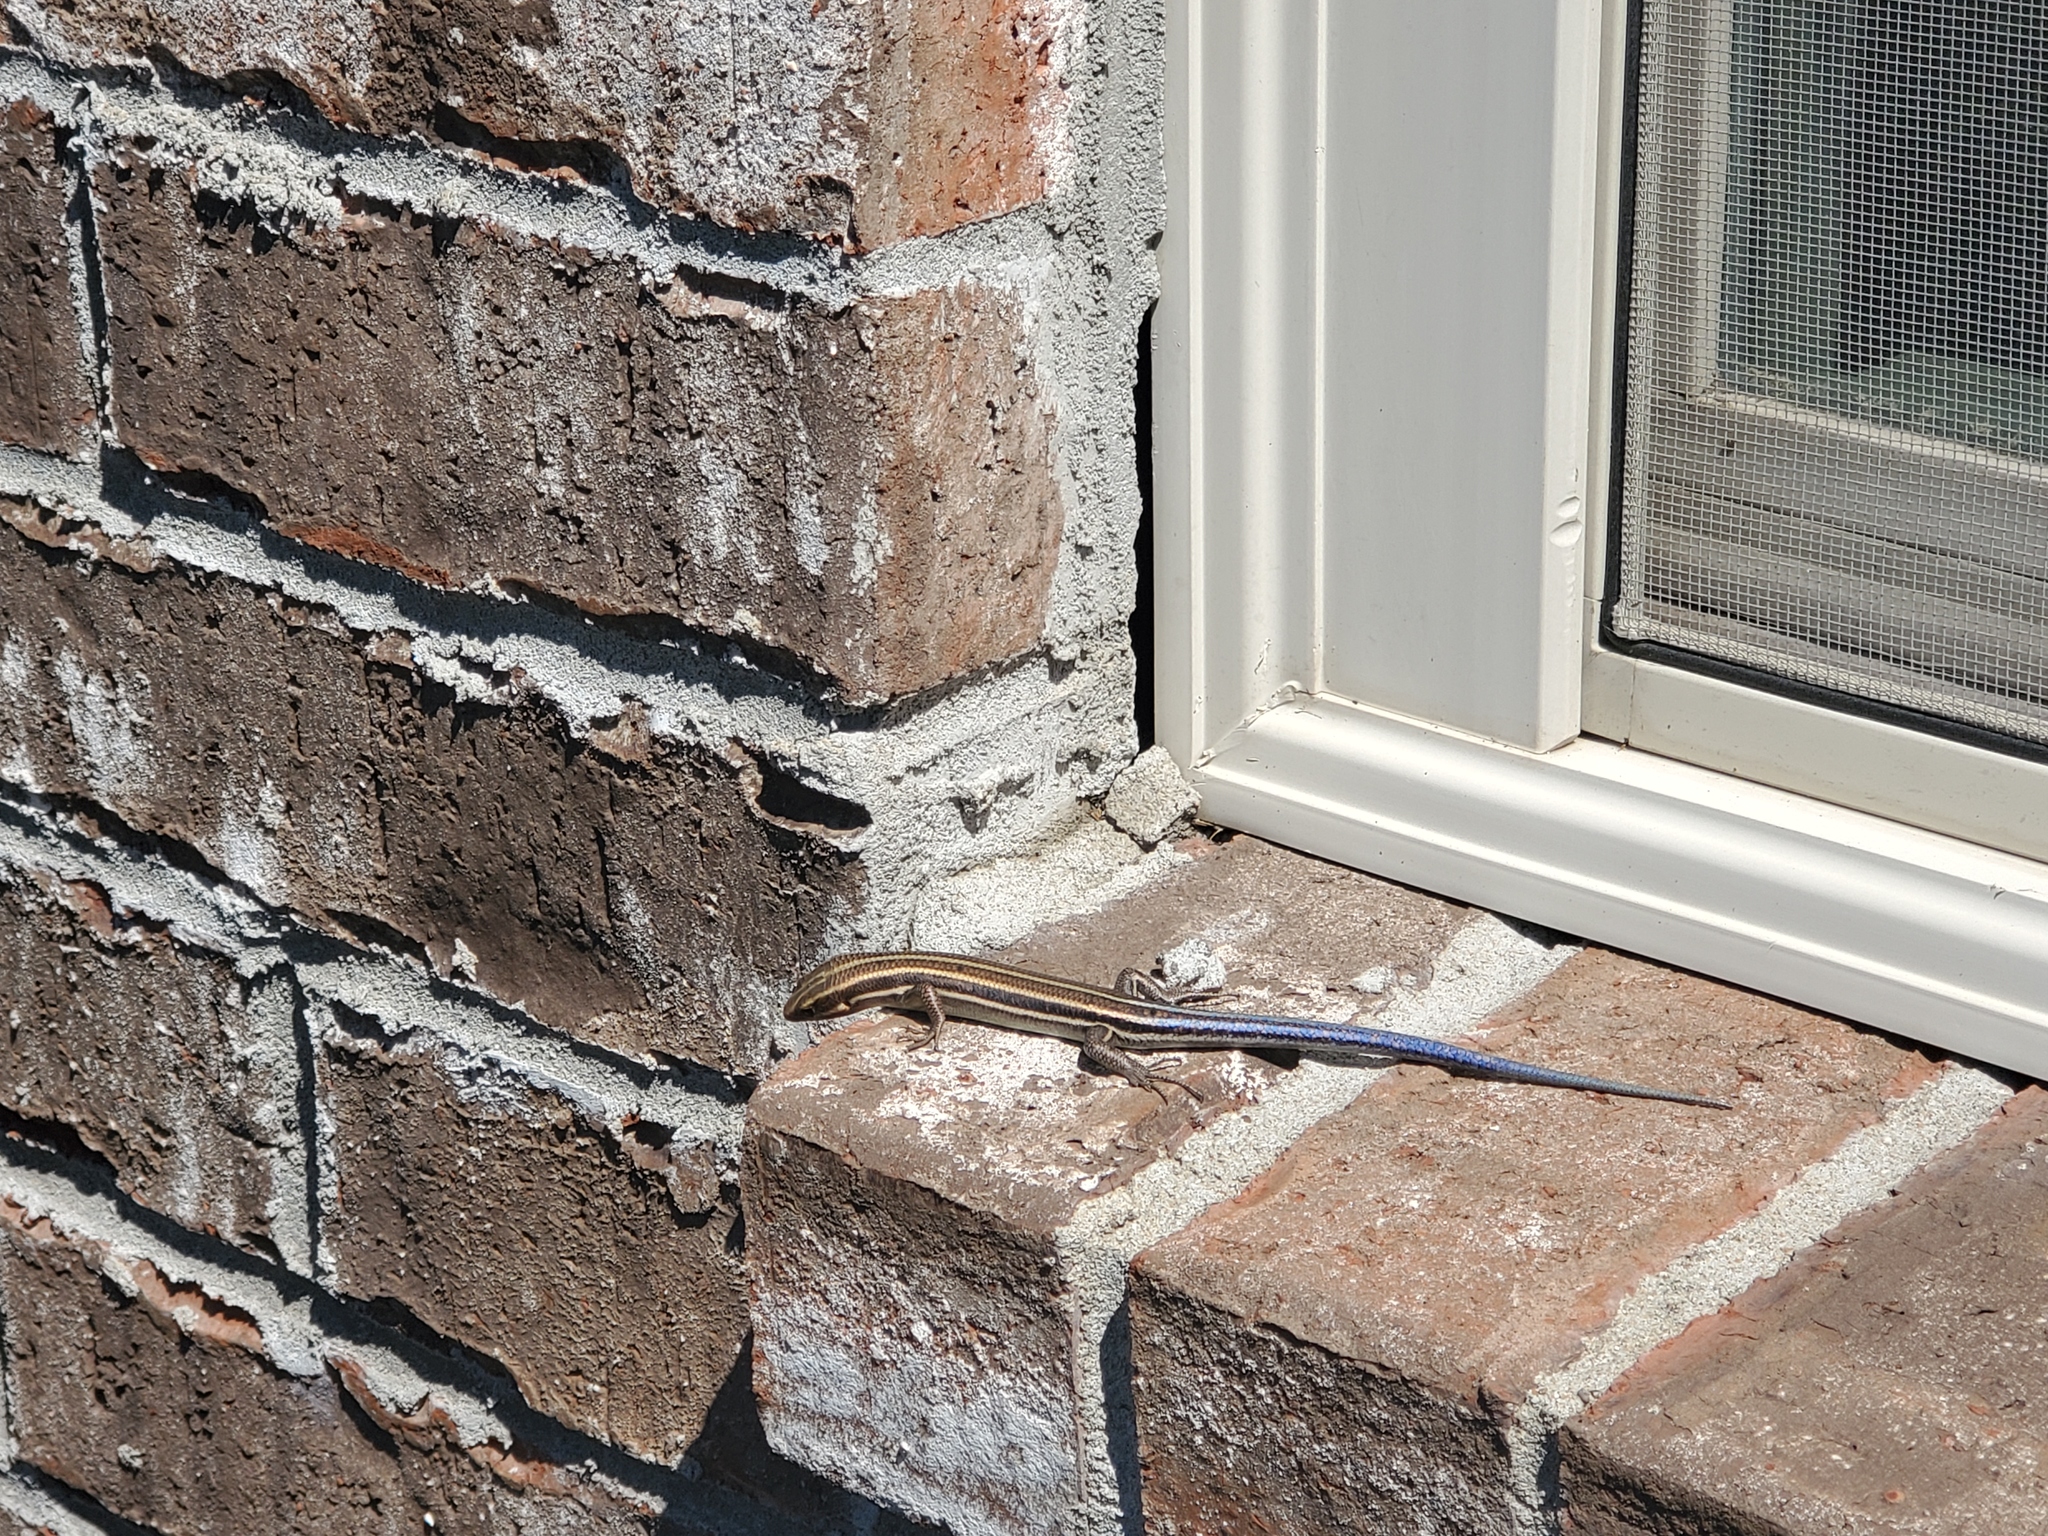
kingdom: Animalia
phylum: Chordata
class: Squamata
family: Scincidae
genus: Plestiodon
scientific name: Plestiodon fasciatus
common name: Five-lined skink
